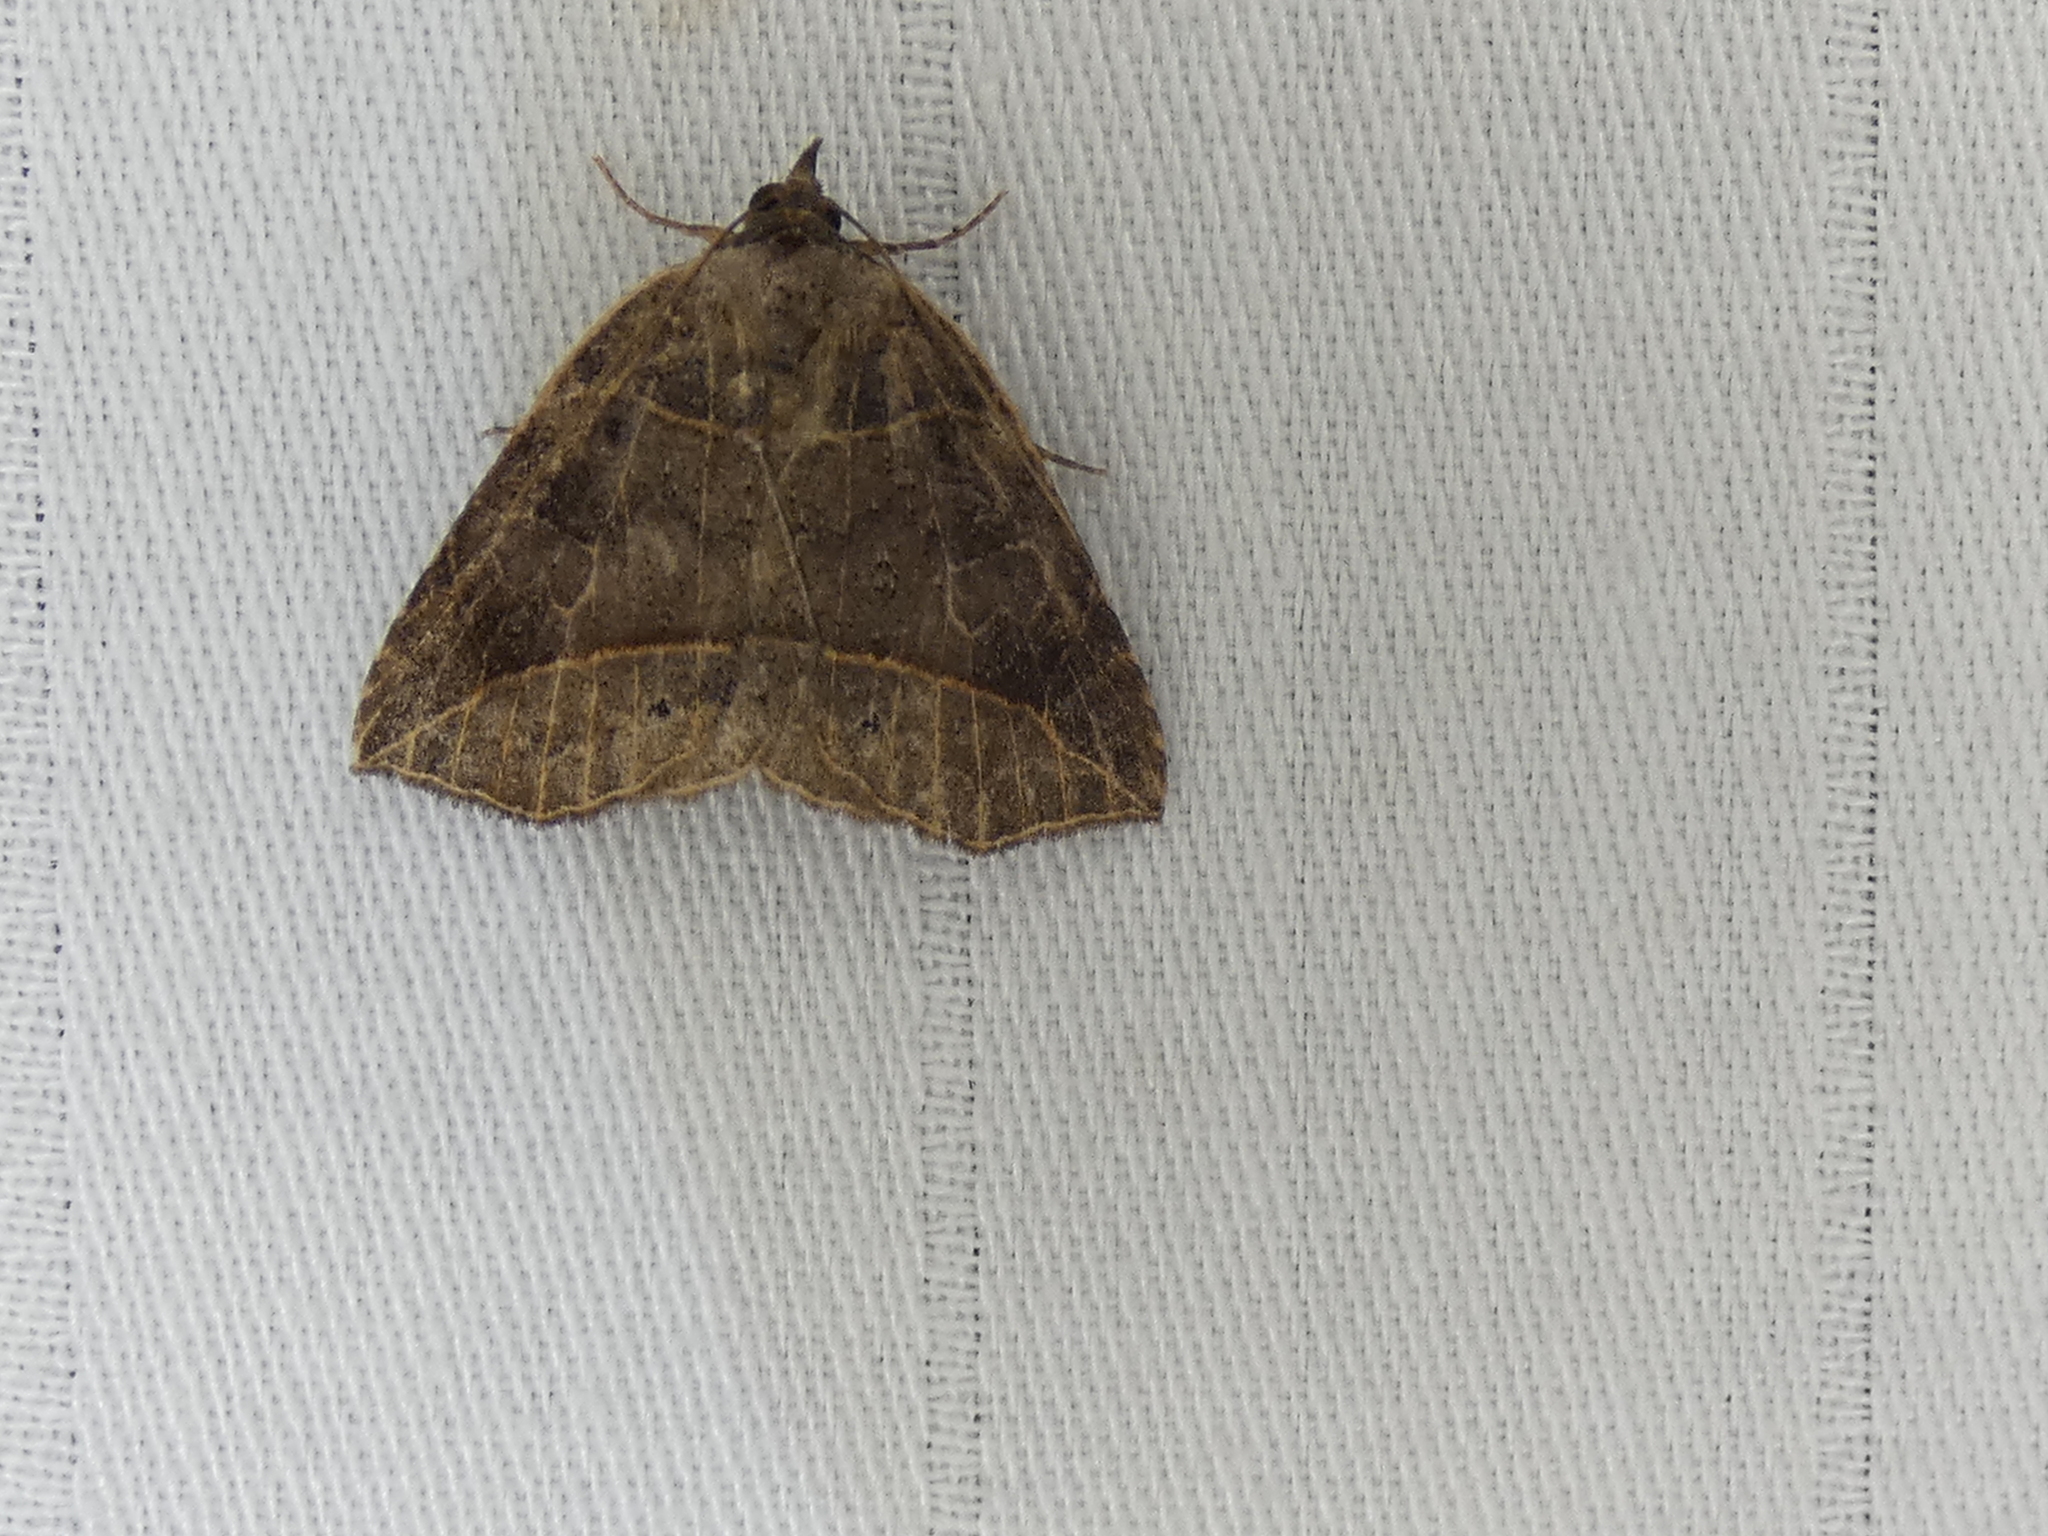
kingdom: Animalia
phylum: Arthropoda
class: Insecta
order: Lepidoptera
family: Erebidae
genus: Isogona
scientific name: Isogona tenuis
